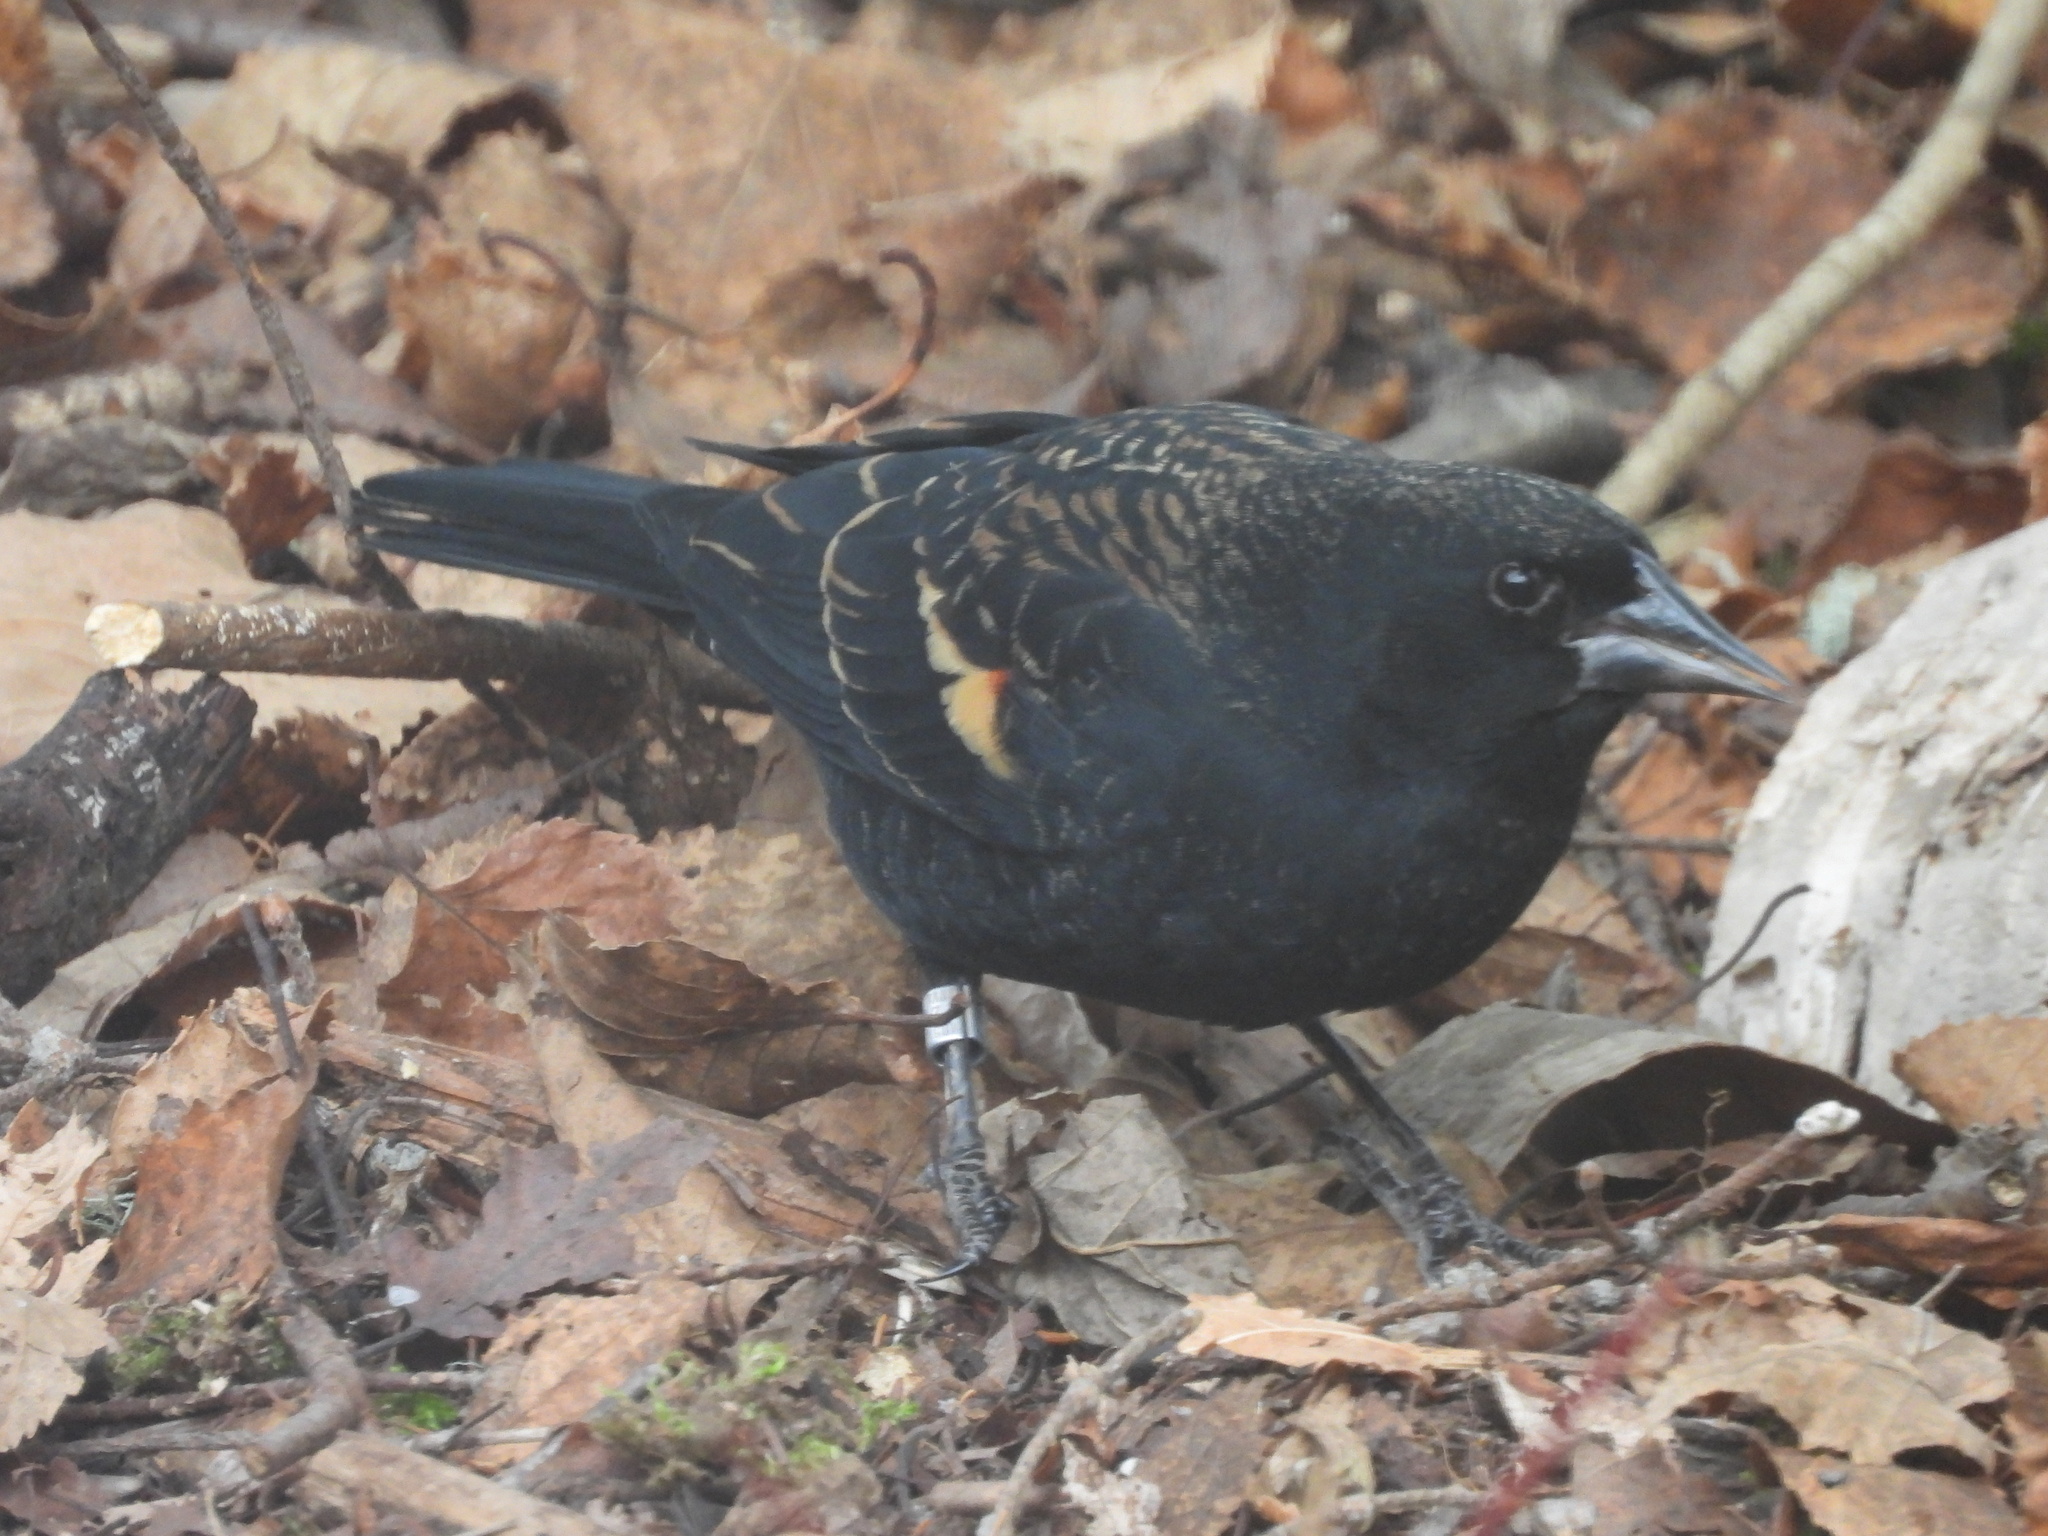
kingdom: Animalia
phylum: Chordata
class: Aves
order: Passeriformes
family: Icteridae
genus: Agelaius
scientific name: Agelaius phoeniceus
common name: Red-winged blackbird
